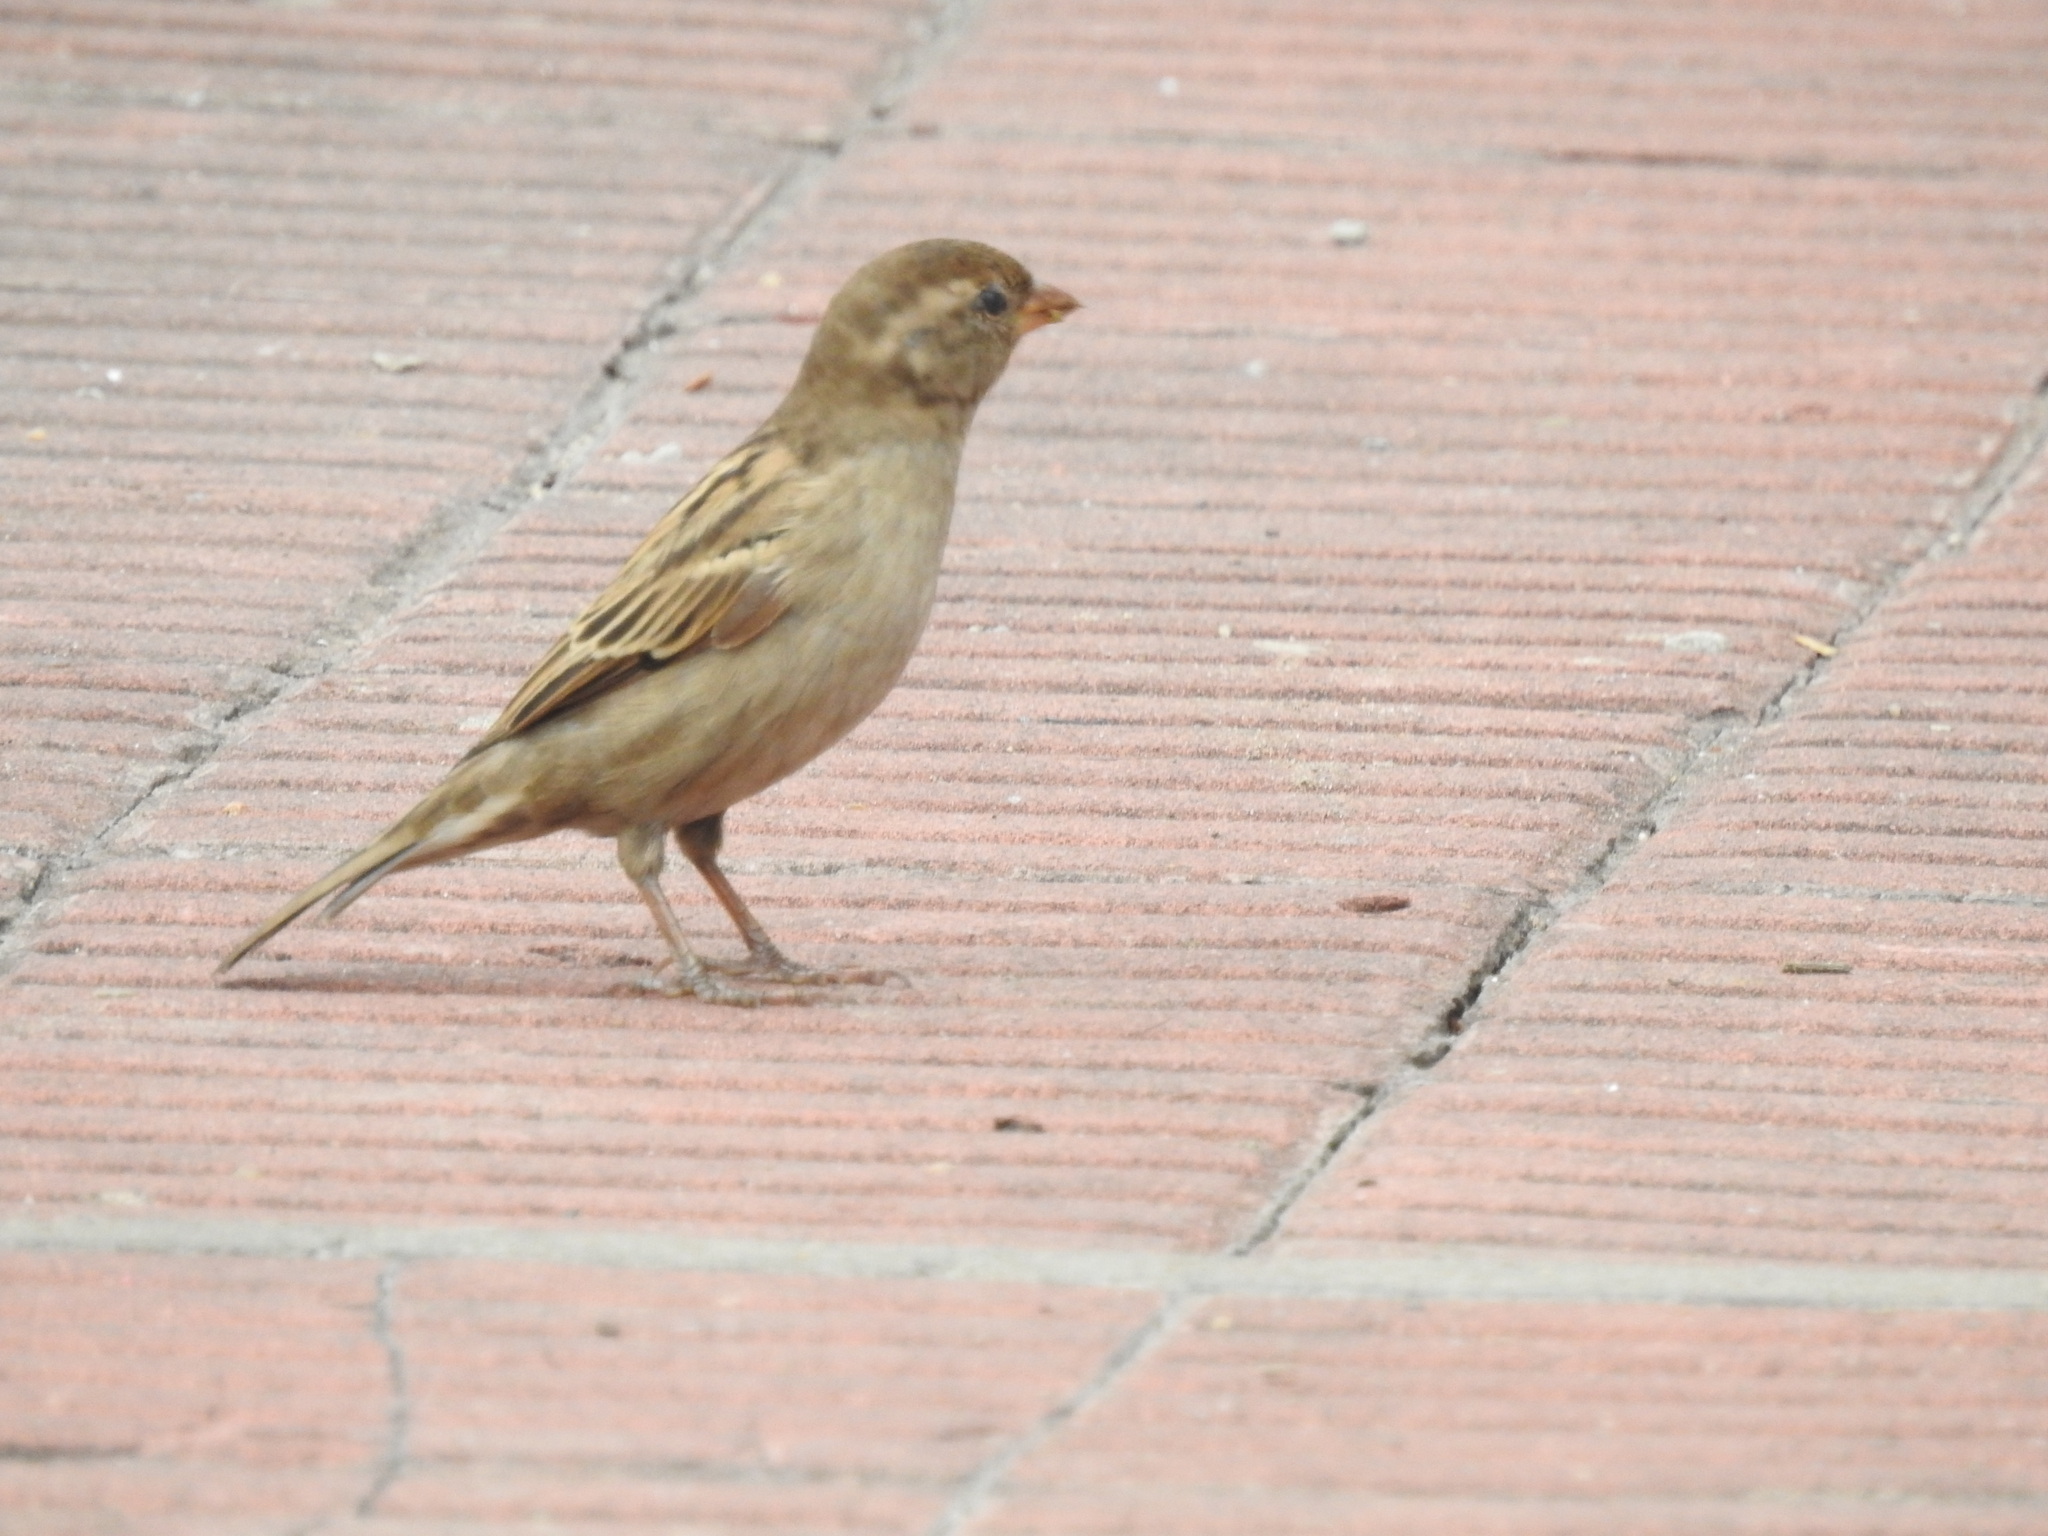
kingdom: Animalia
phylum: Chordata
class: Aves
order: Passeriformes
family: Passeridae
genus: Passer
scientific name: Passer domesticus
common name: House sparrow
